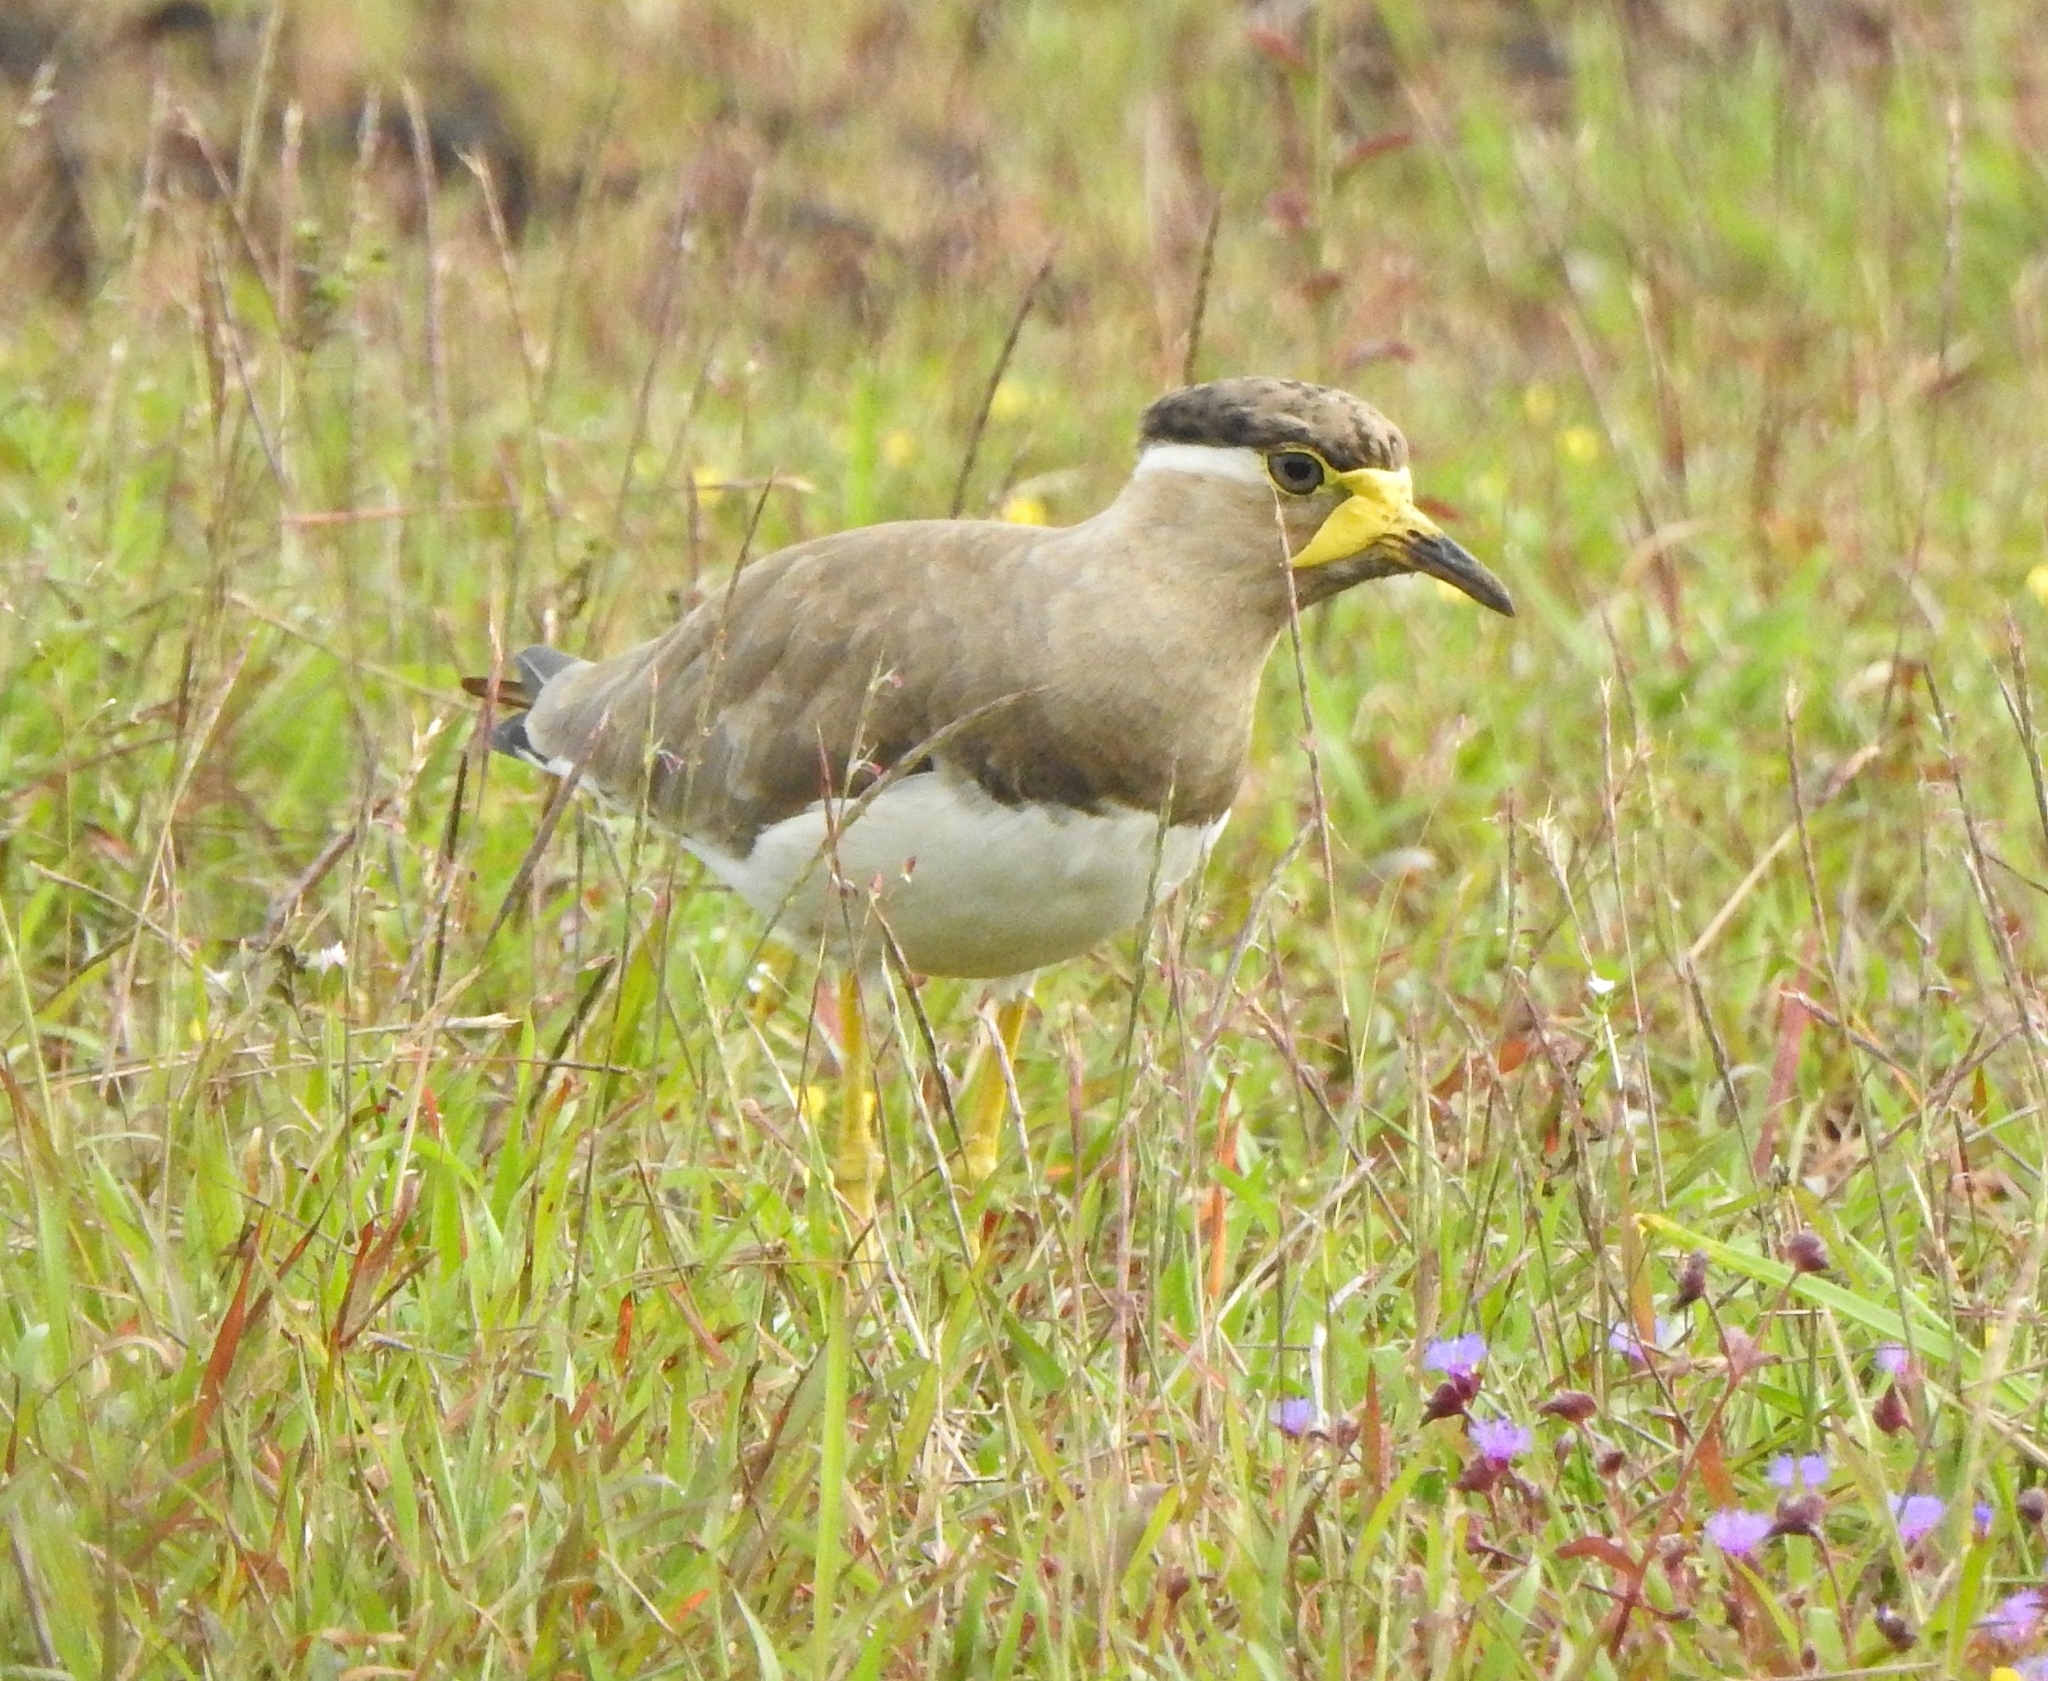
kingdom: Animalia
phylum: Chordata
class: Aves
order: Charadriiformes
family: Charadriidae
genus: Vanellus
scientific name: Vanellus malabaricus
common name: Yellow-wattled lapwing
